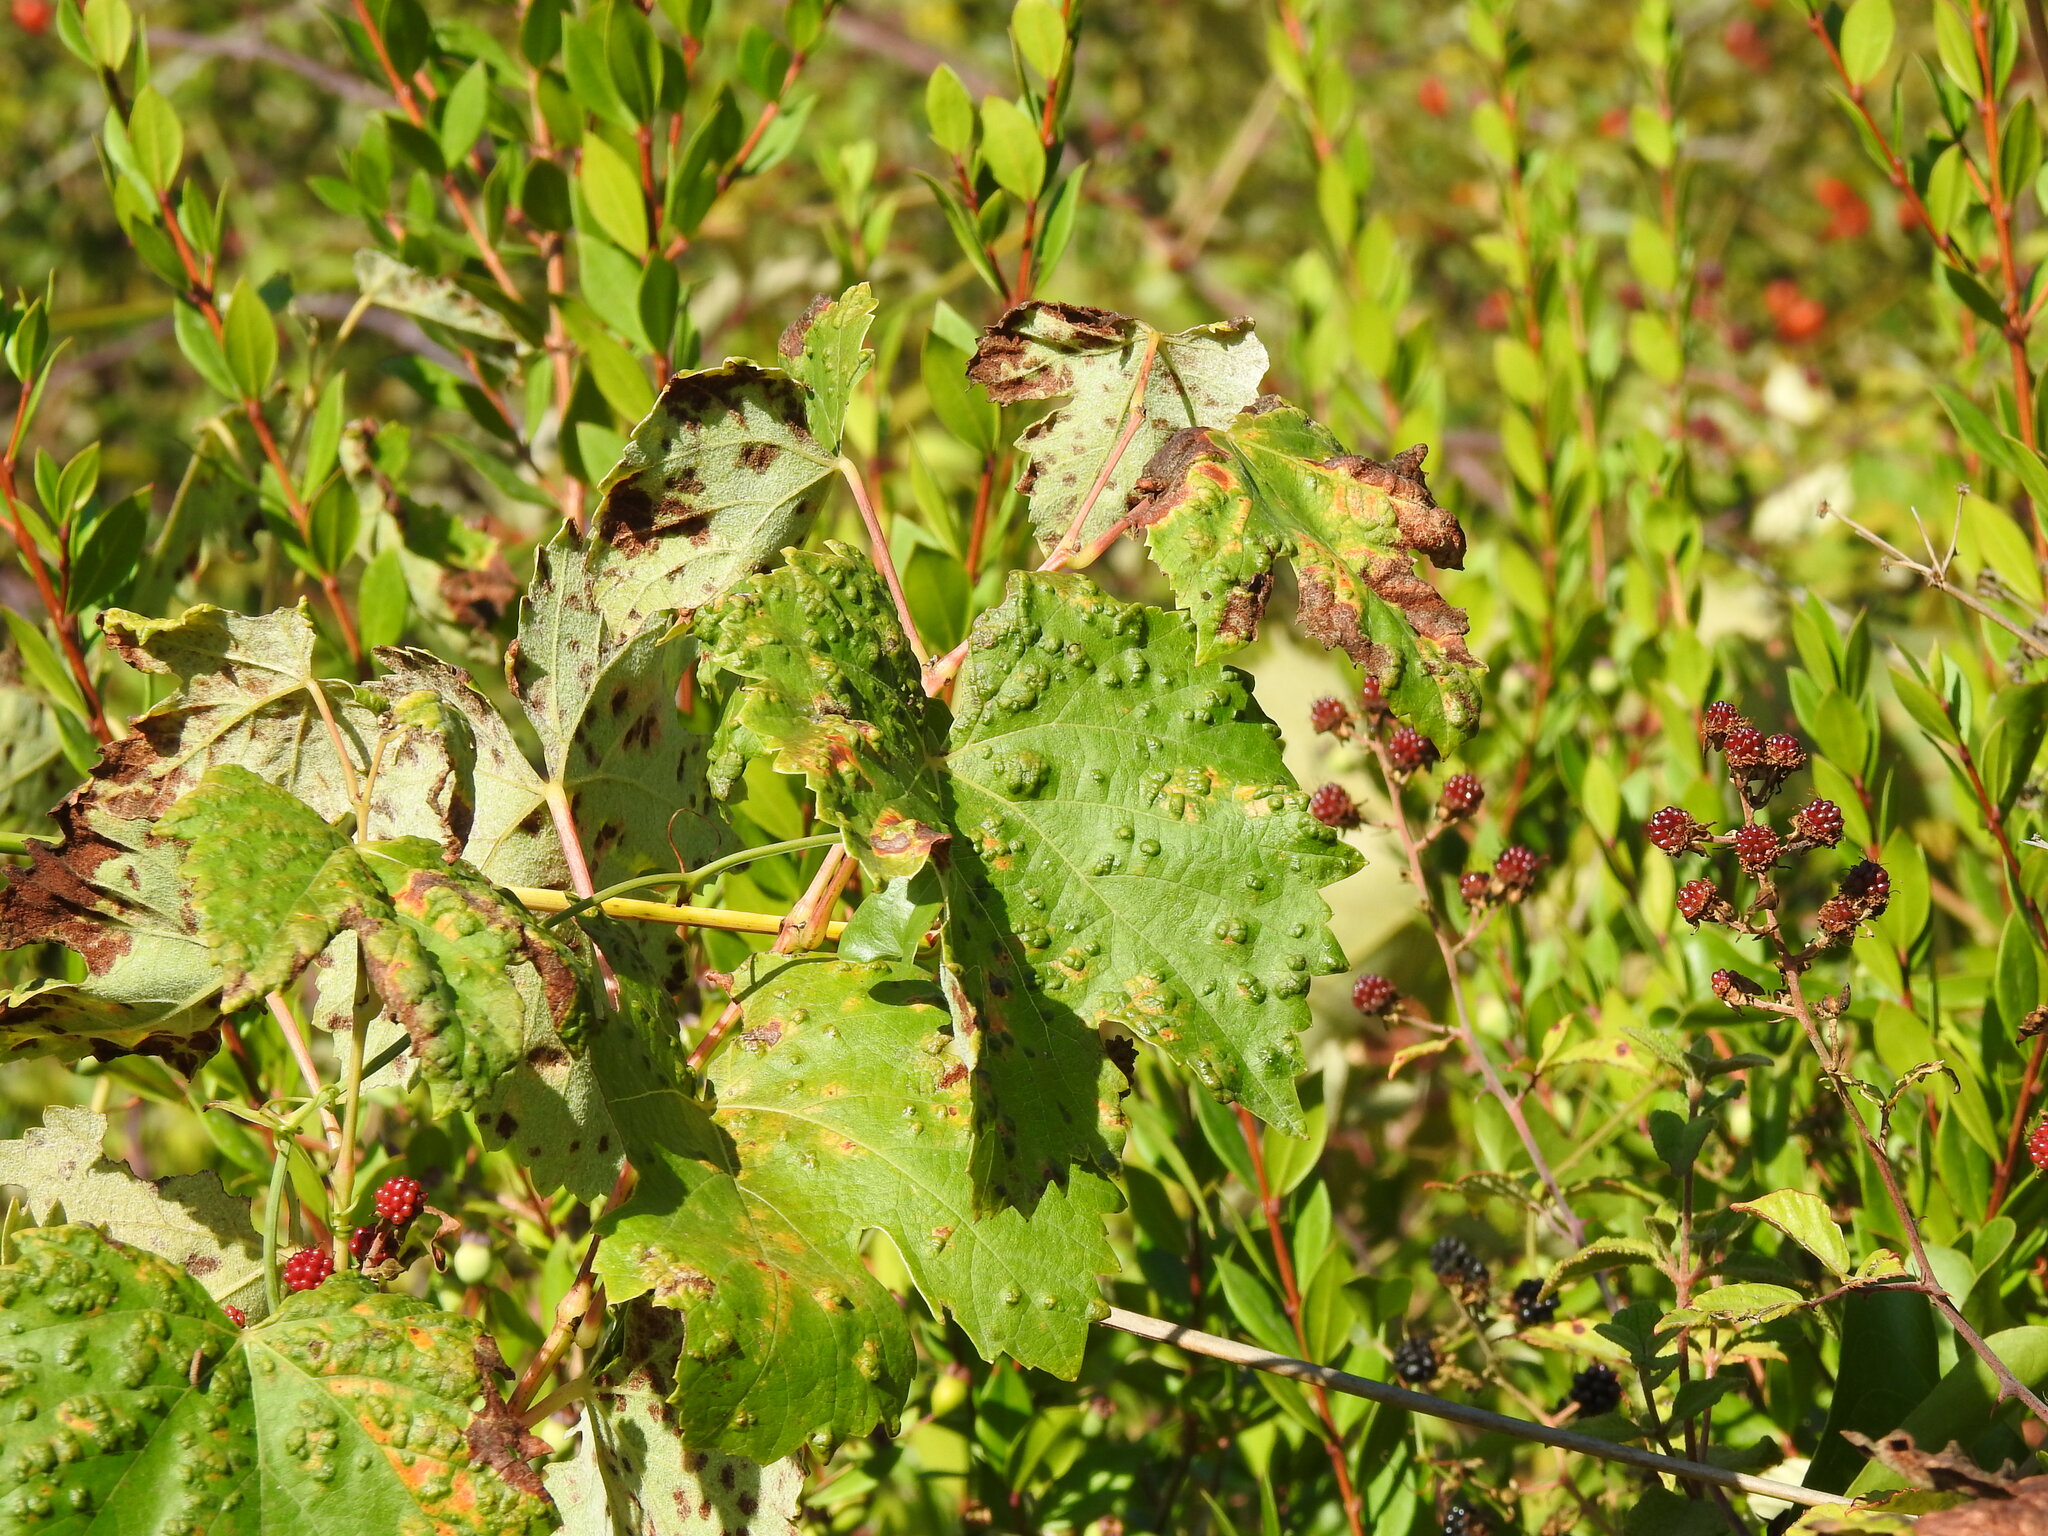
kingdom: Plantae
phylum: Tracheophyta
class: Magnoliopsida
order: Vitales
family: Vitaceae
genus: Vitis
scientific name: Vitis vinifera
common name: Grape-vine
